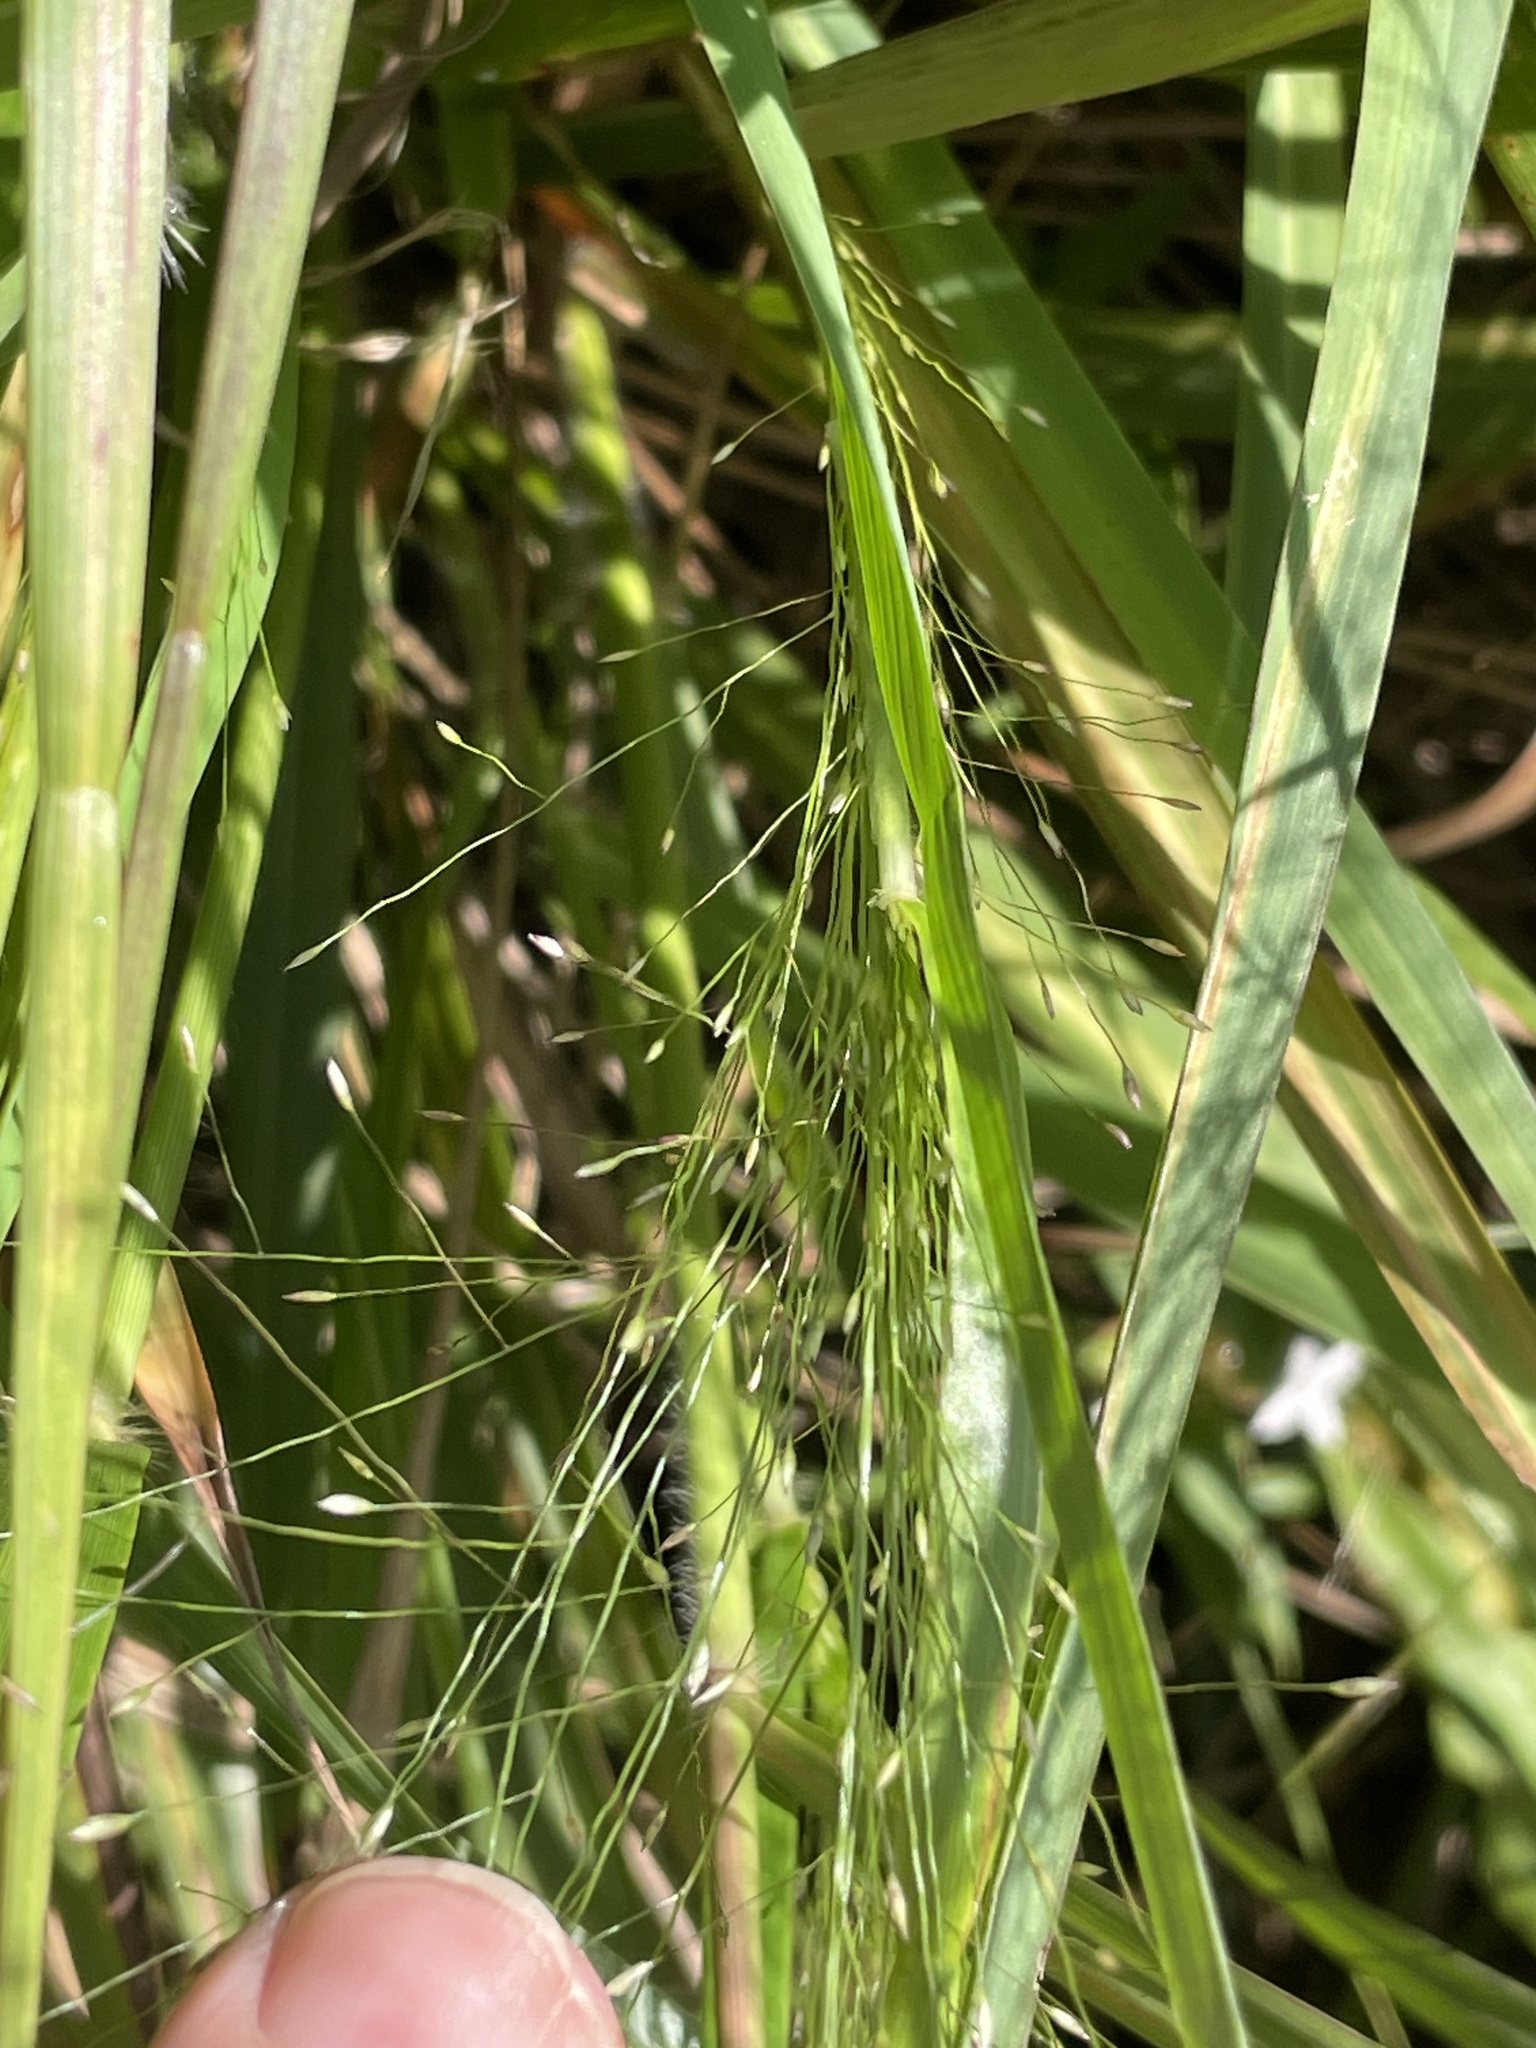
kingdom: Plantae
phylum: Tracheophyta
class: Liliopsida
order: Poales
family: Poaceae
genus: Eragrostis
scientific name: Eragrostis spectabilis
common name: Petticoat-climber
